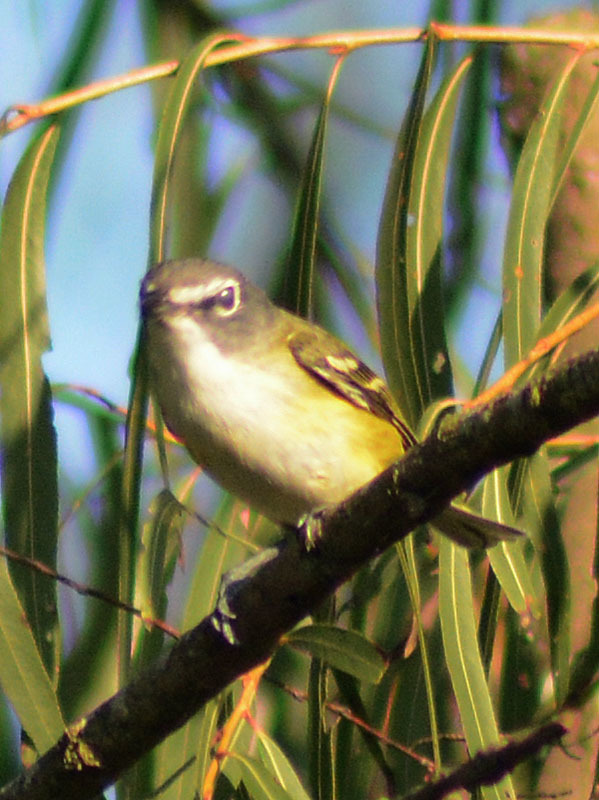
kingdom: Animalia
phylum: Chordata
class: Aves
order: Passeriformes
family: Vireonidae
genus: Vireo
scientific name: Vireo solitarius
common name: Blue-headed vireo
